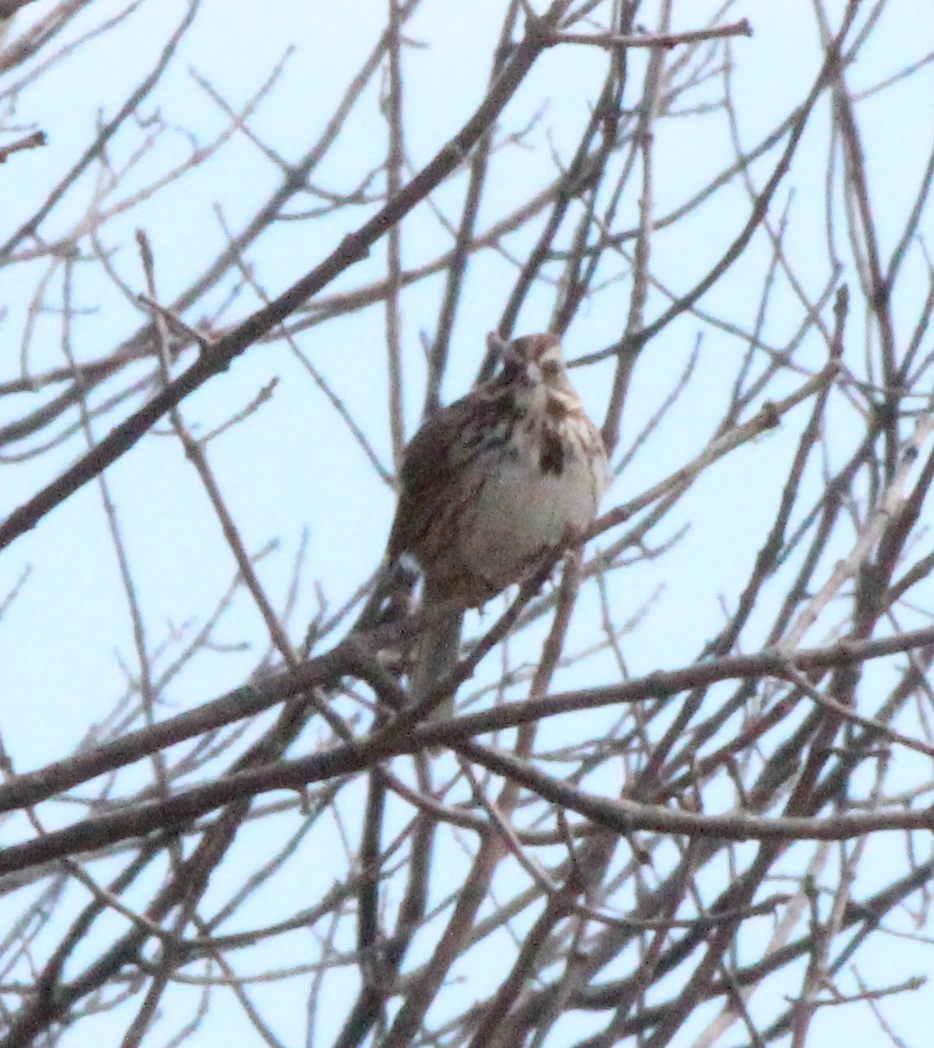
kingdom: Animalia
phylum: Chordata
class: Aves
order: Passeriformes
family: Passerellidae
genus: Melospiza
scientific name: Melospiza melodia
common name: Song sparrow
